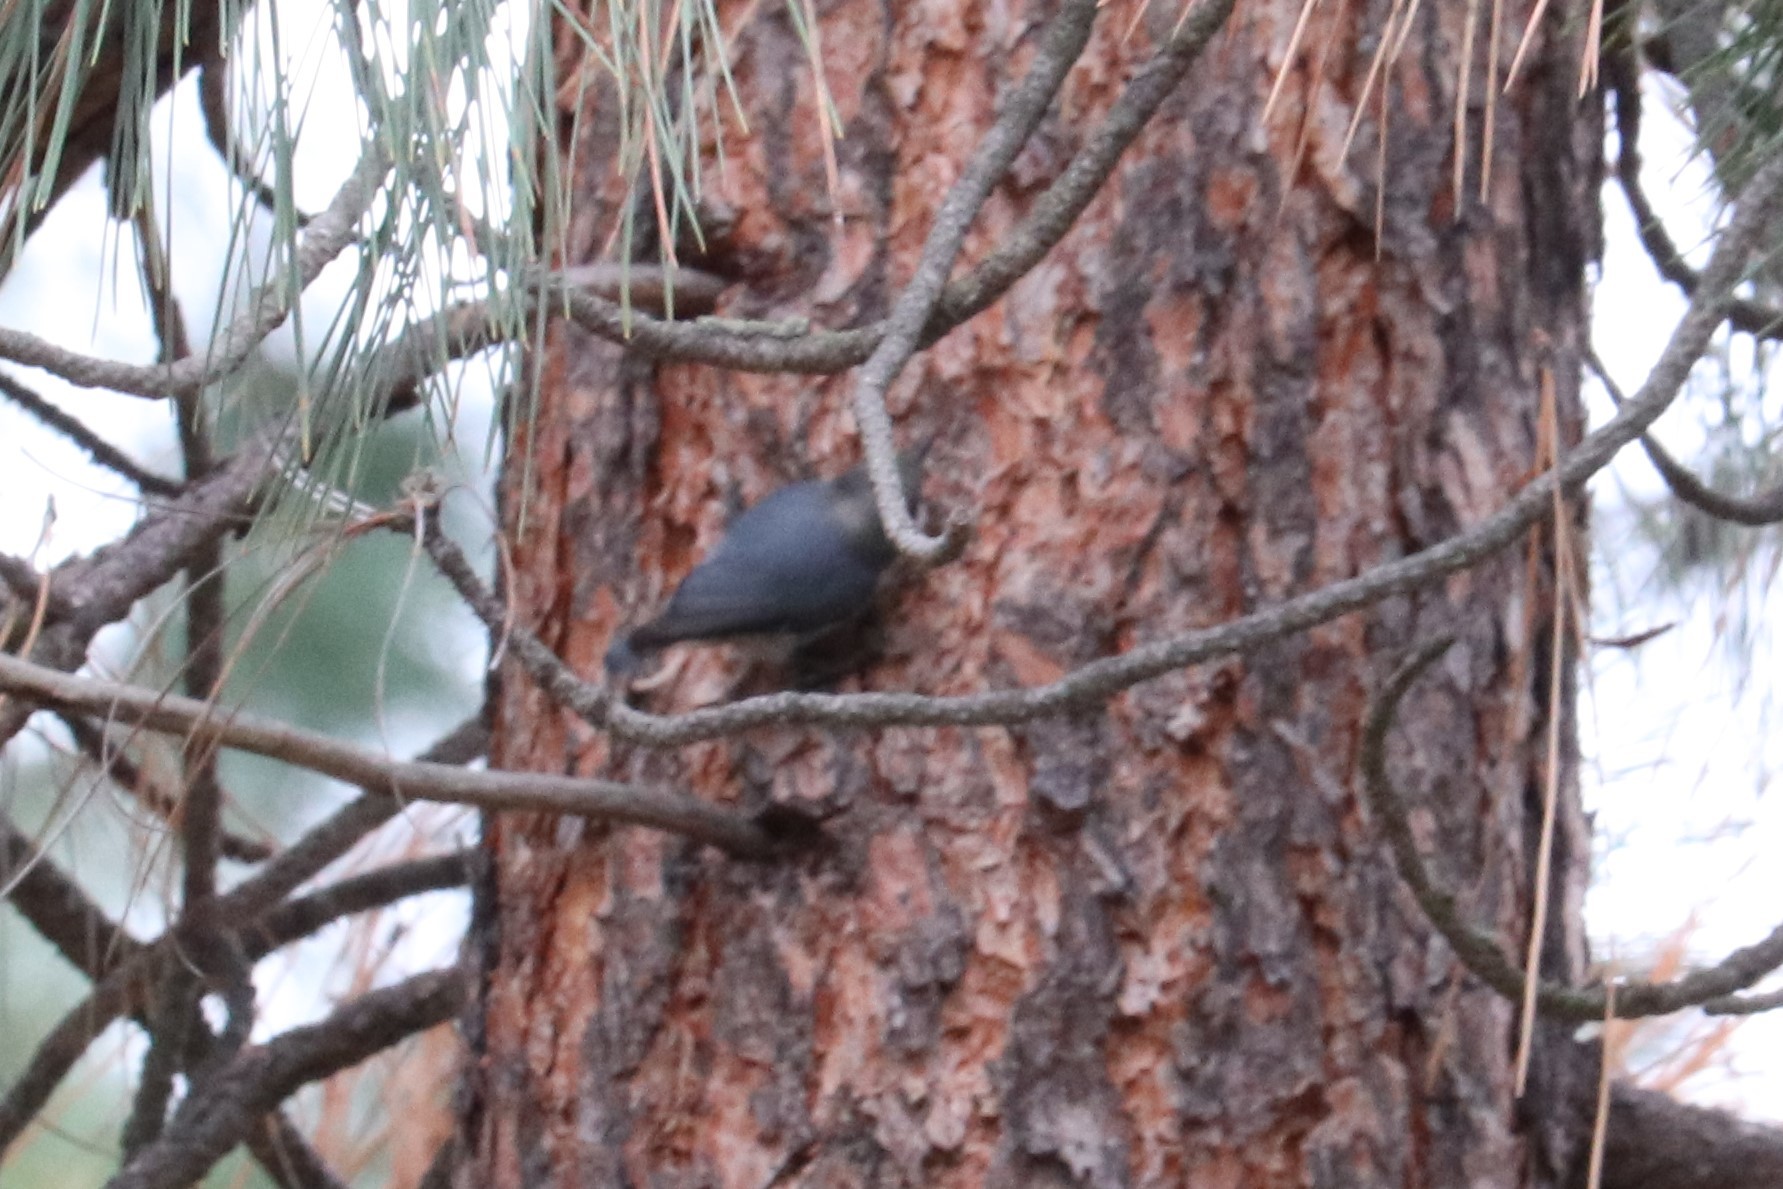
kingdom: Animalia
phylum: Chordata
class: Aves
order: Passeriformes
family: Sittidae
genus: Sitta
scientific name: Sitta pygmaea
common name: Pygmy nuthatch
